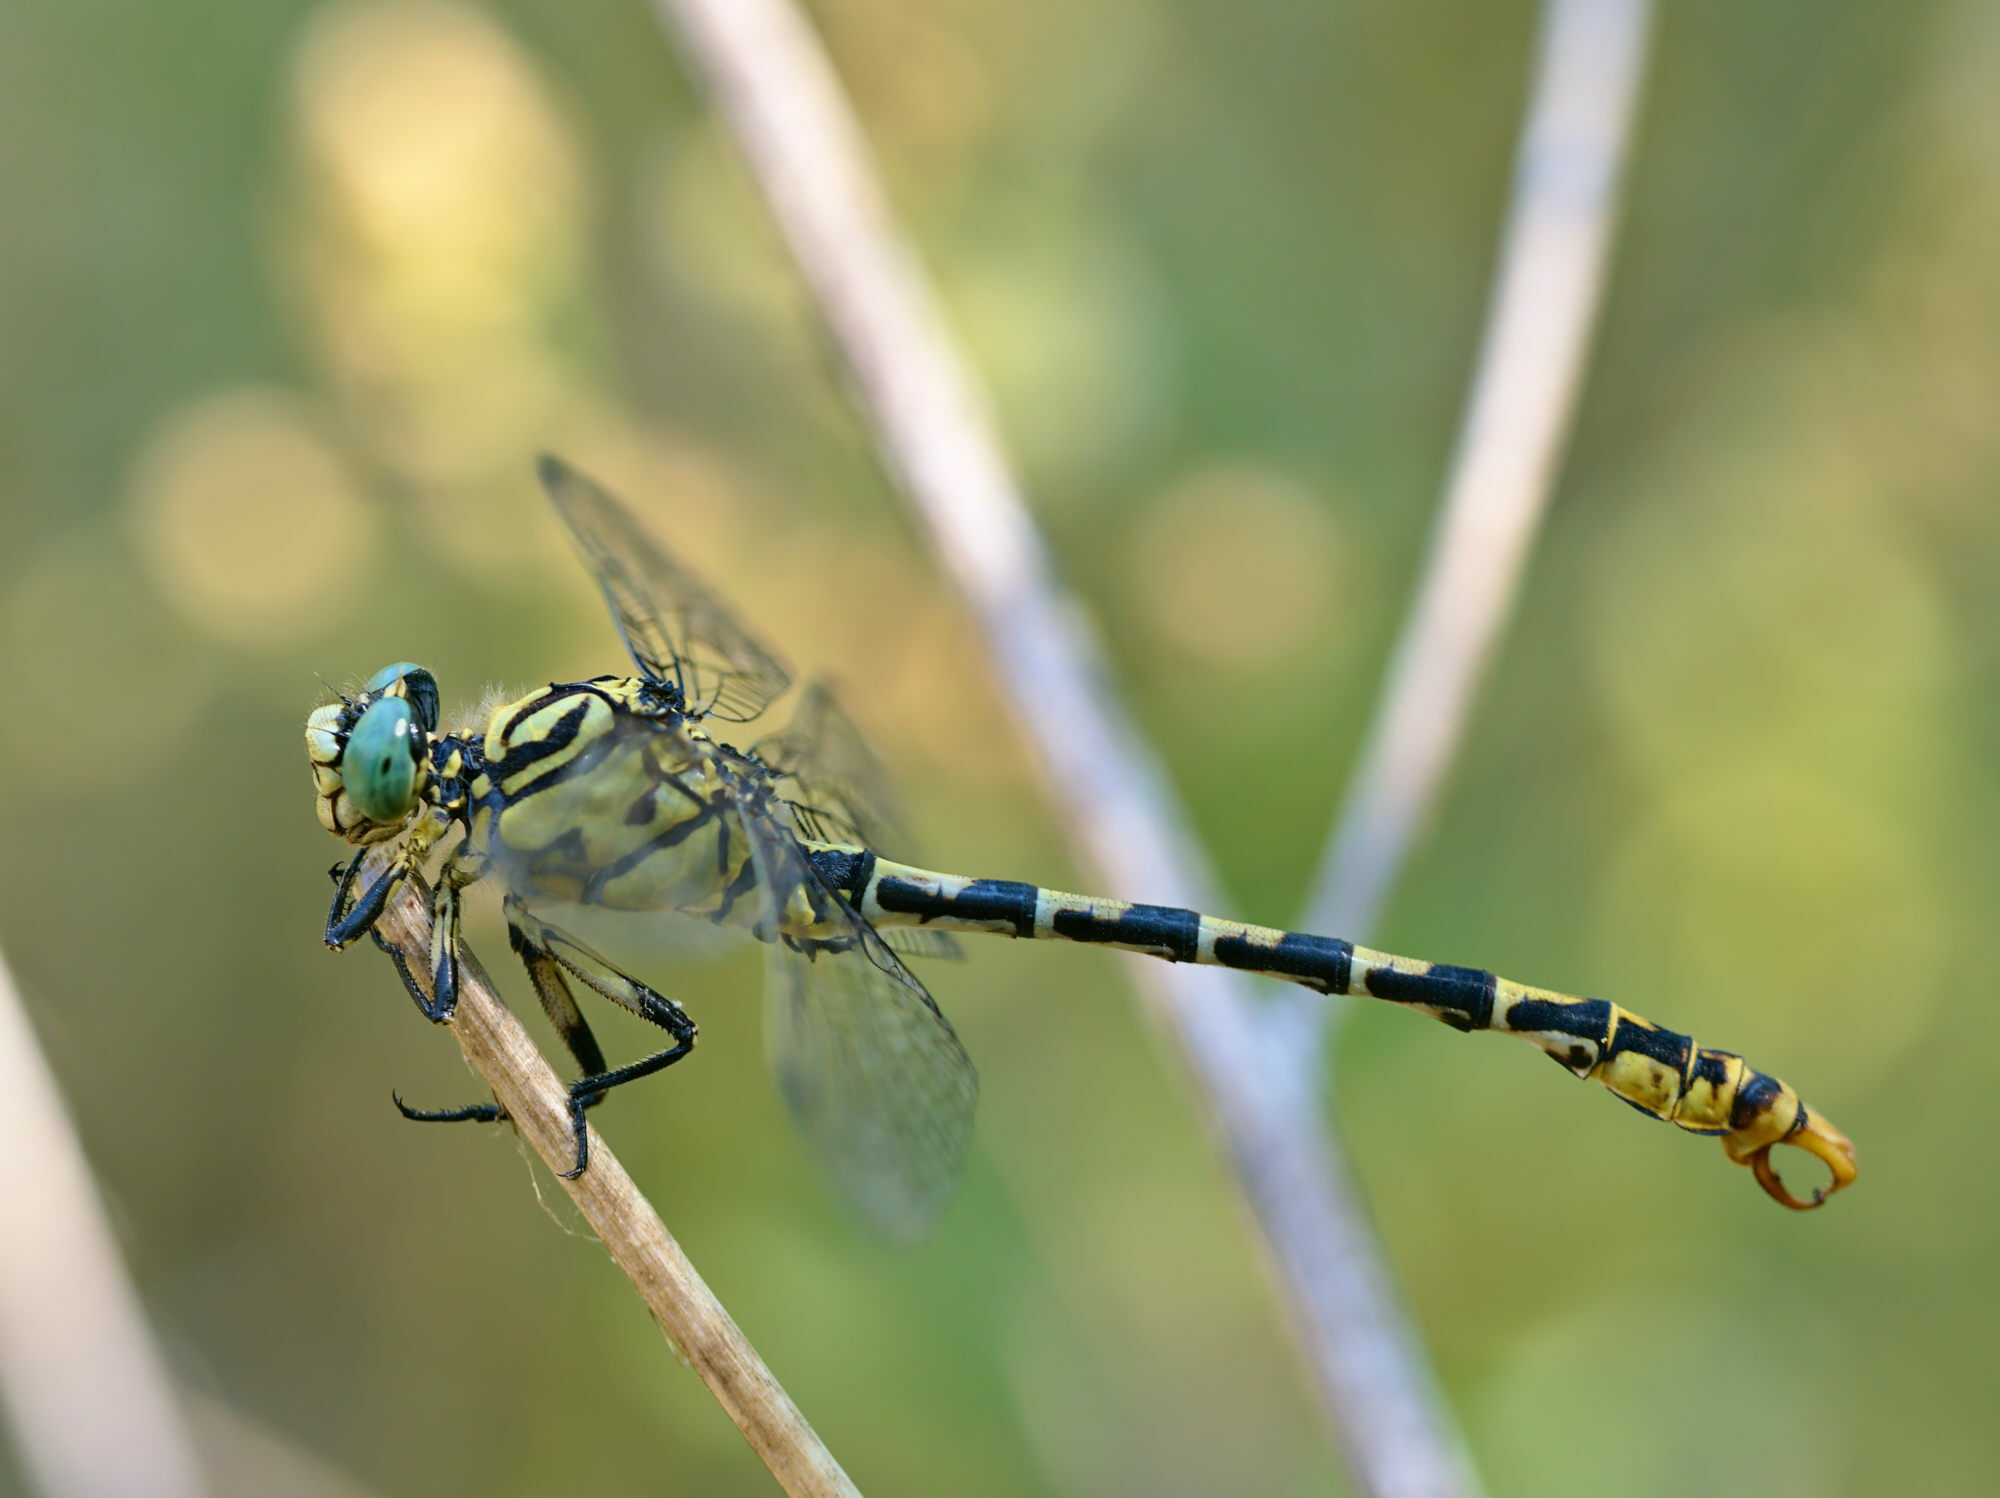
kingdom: Animalia
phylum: Arthropoda
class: Insecta
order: Odonata
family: Gomphidae
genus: Onychogomphus
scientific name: Onychogomphus forcipatus
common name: Small pincertail
